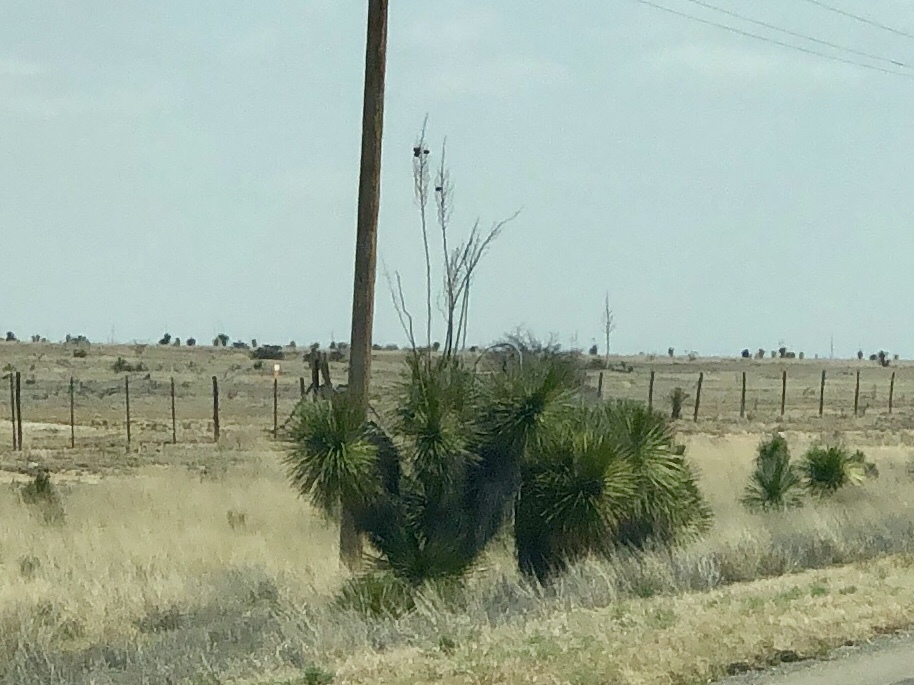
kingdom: Plantae
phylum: Tracheophyta
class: Liliopsida
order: Asparagales
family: Asparagaceae
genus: Yucca
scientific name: Yucca elata
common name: Palmella
